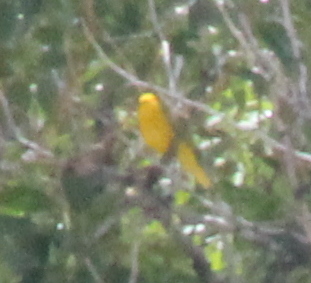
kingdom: Animalia
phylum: Chordata
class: Aves
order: Passeriformes
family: Parulidae
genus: Setophaga
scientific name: Setophaga petechia
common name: Yellow warbler
